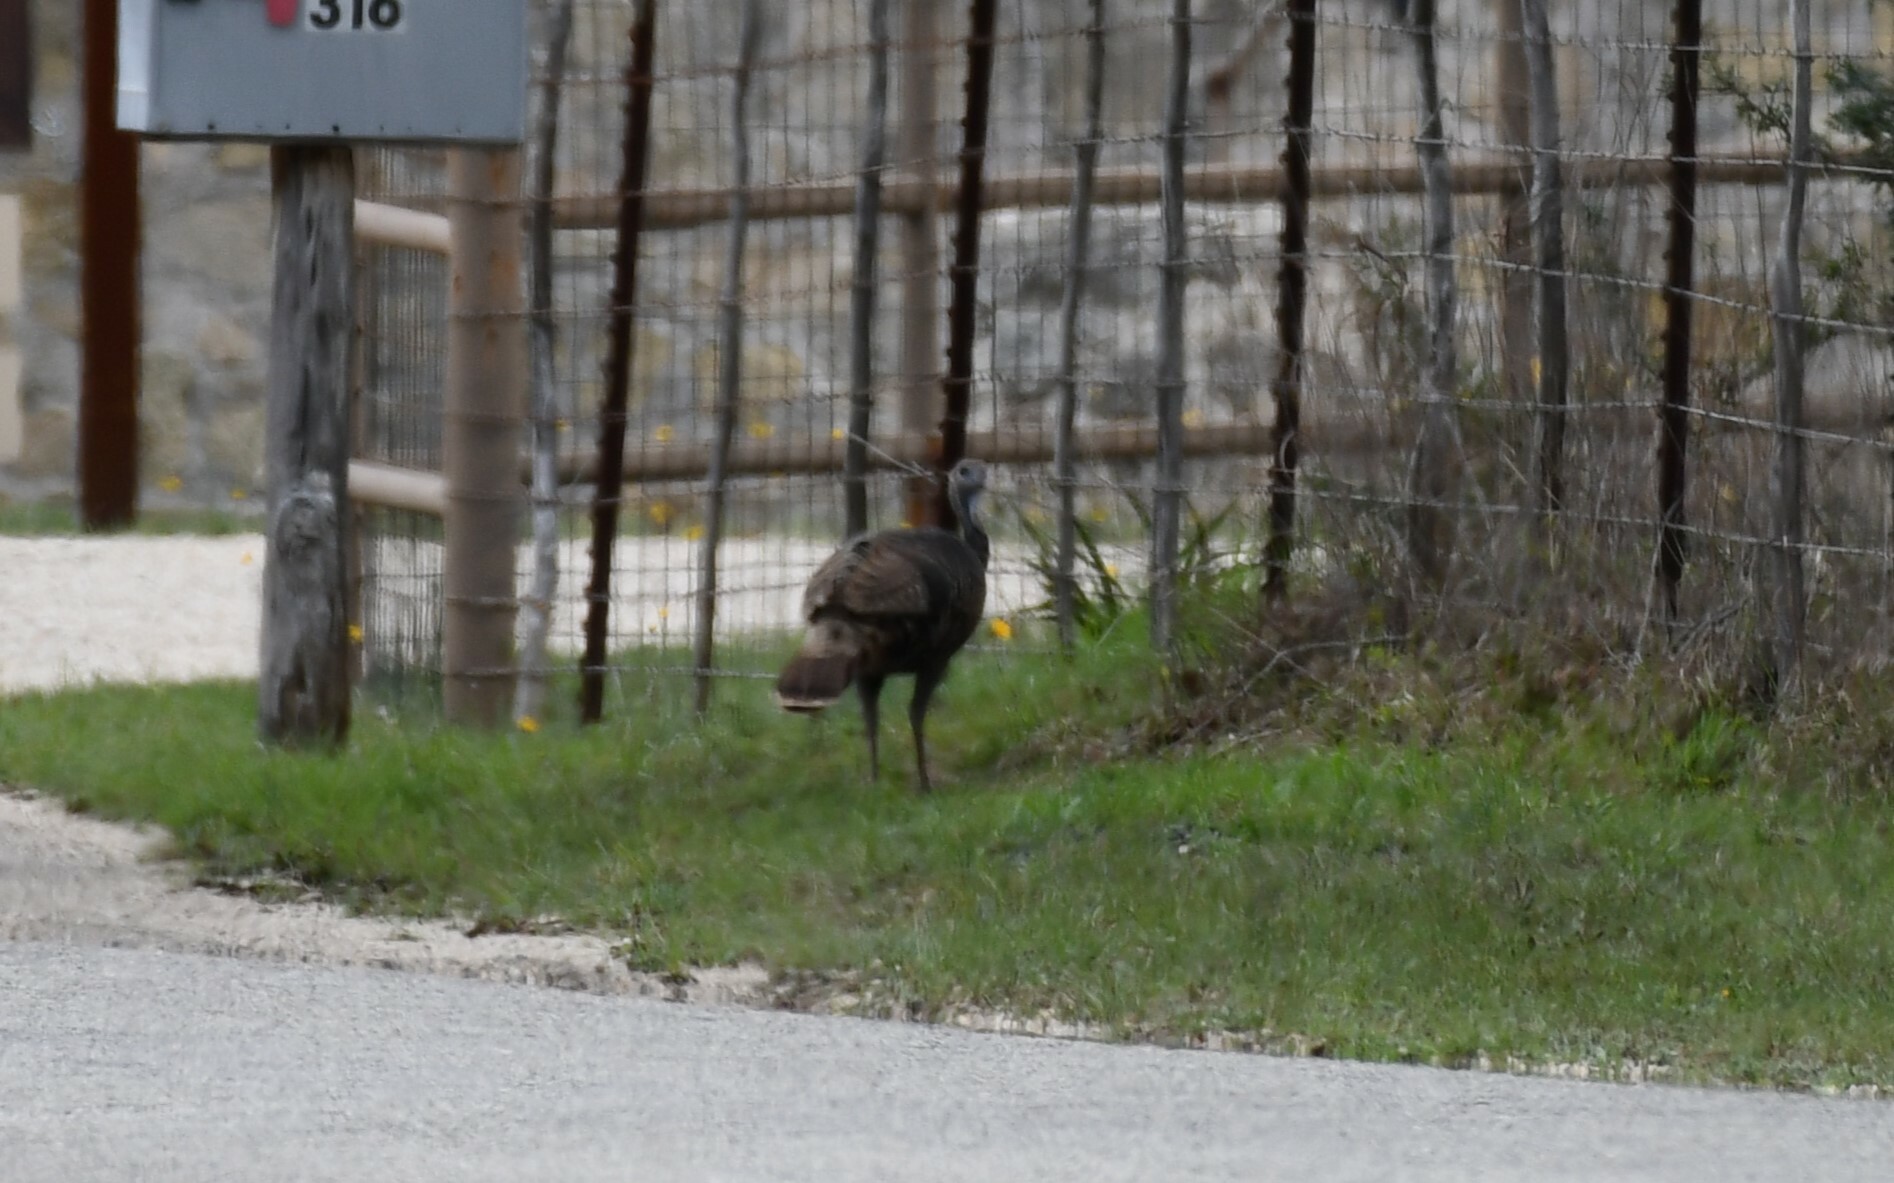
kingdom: Animalia
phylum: Chordata
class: Aves
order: Galliformes
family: Phasianidae
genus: Meleagris
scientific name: Meleagris gallopavo
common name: Wild turkey
